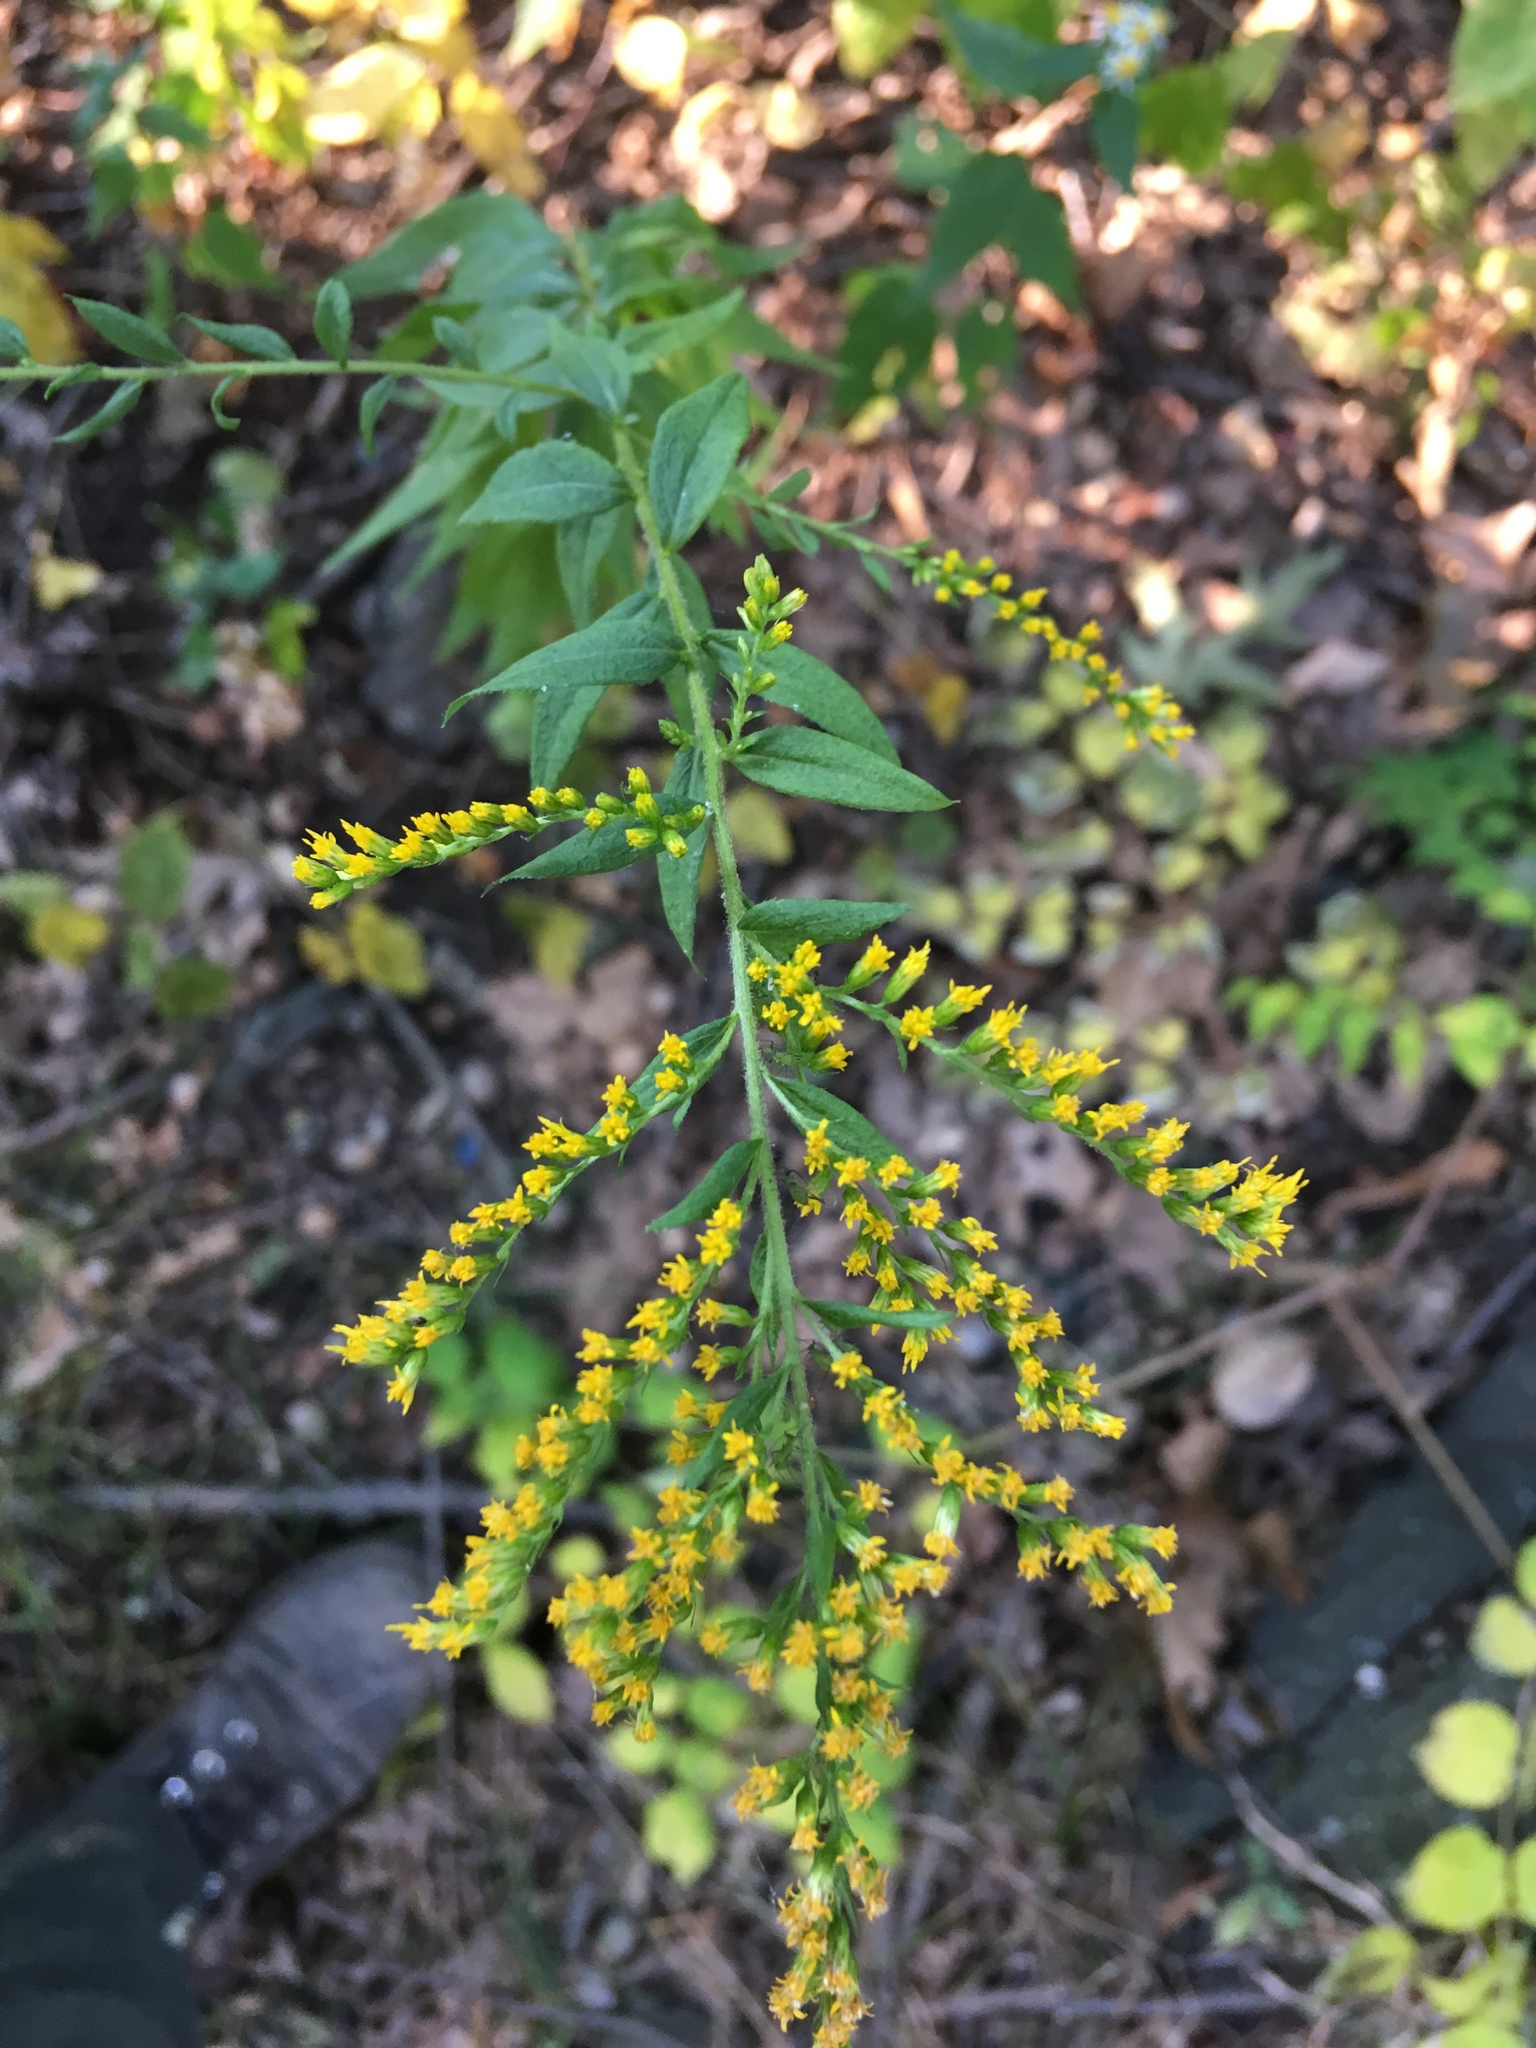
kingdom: Plantae
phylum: Tracheophyta
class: Magnoliopsida
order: Asterales
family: Asteraceae
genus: Solidago
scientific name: Solidago rugosa
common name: Rough-stemmed goldenrod
